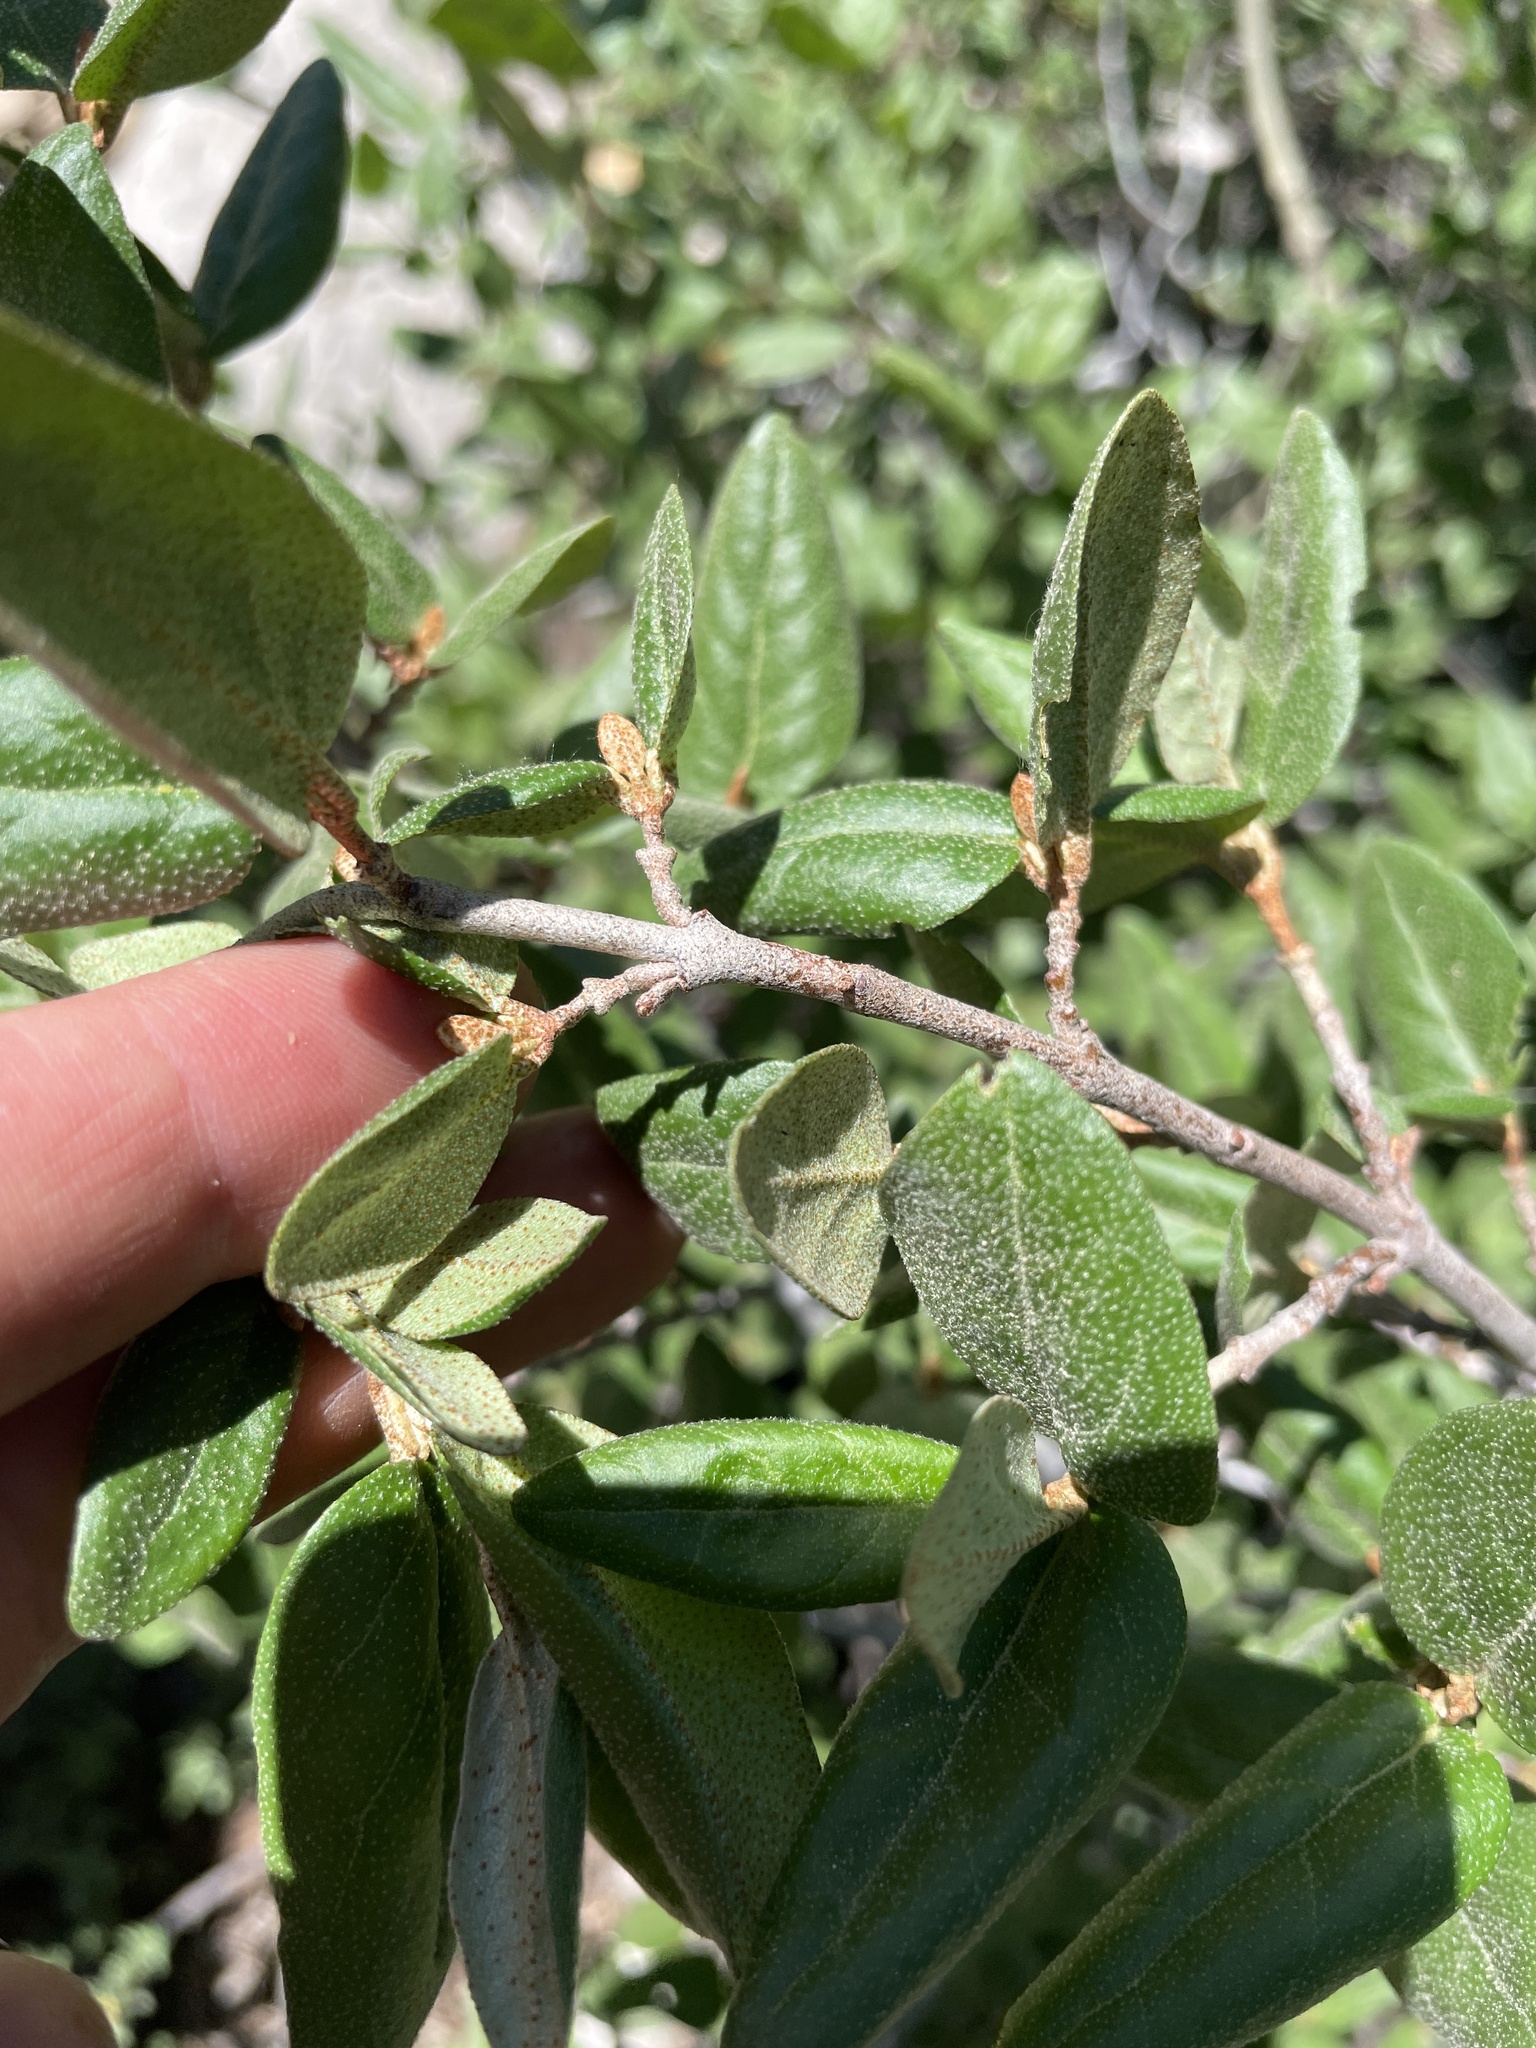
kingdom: Plantae
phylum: Tracheophyta
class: Magnoliopsida
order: Rosales
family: Elaeagnaceae
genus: Shepherdia
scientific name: Shepherdia canadensis
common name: Soapberry
